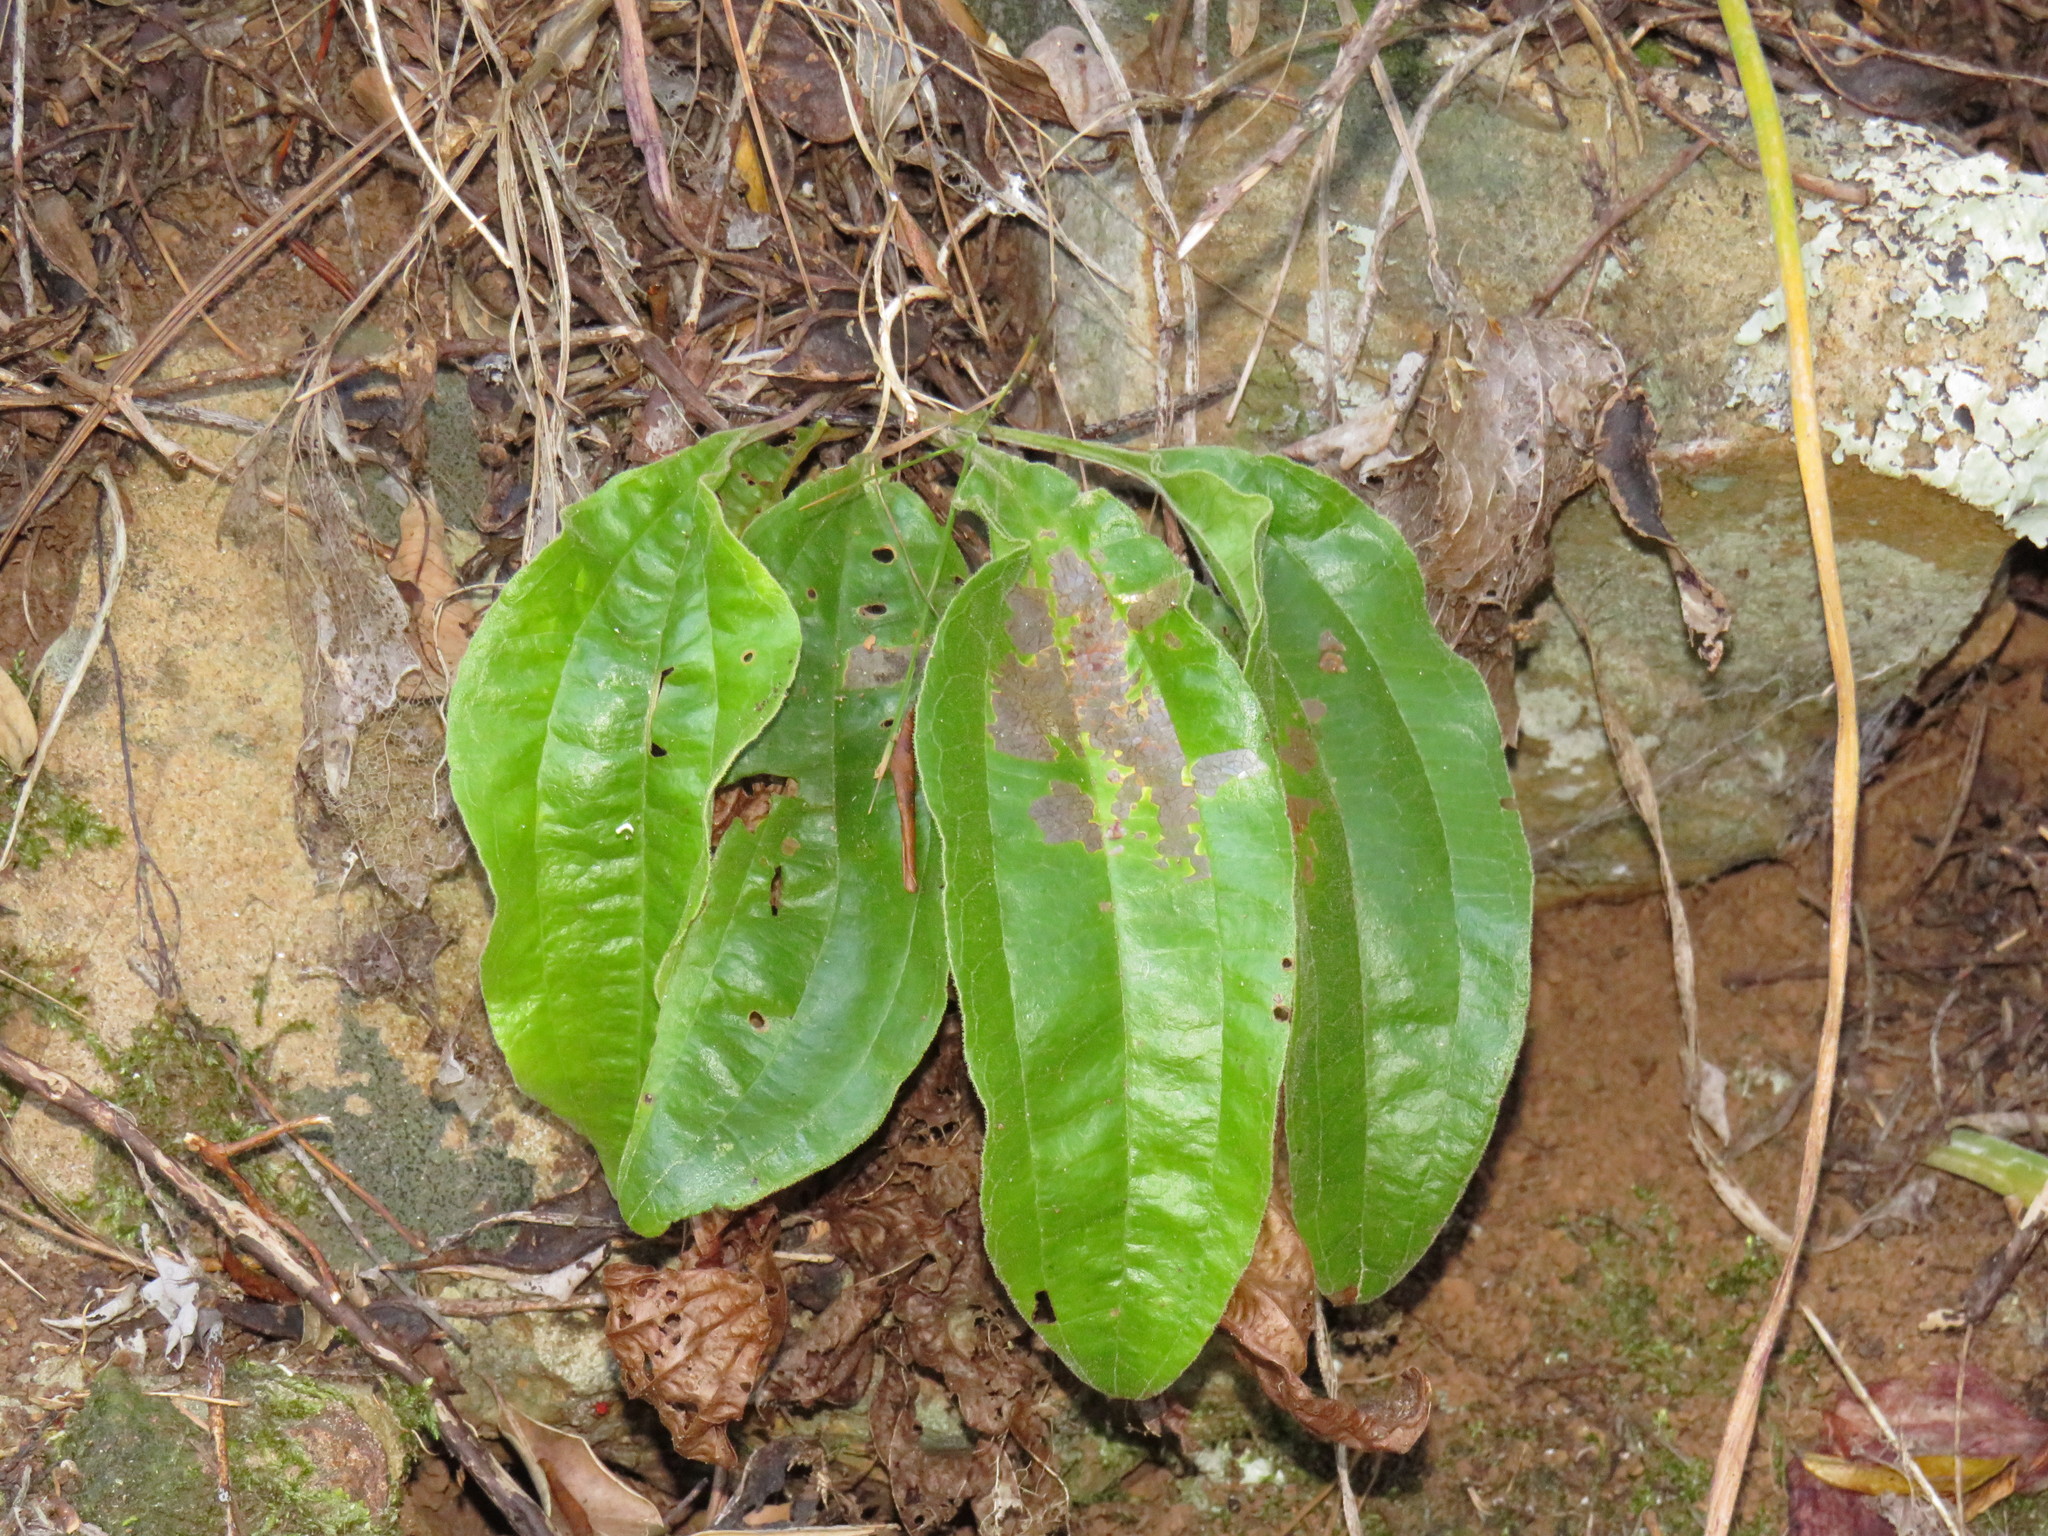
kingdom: Plantae
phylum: Tracheophyta
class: Magnoliopsida
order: Asterales
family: Asteraceae
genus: Helichrysum
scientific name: Helichrysum nudifolium
